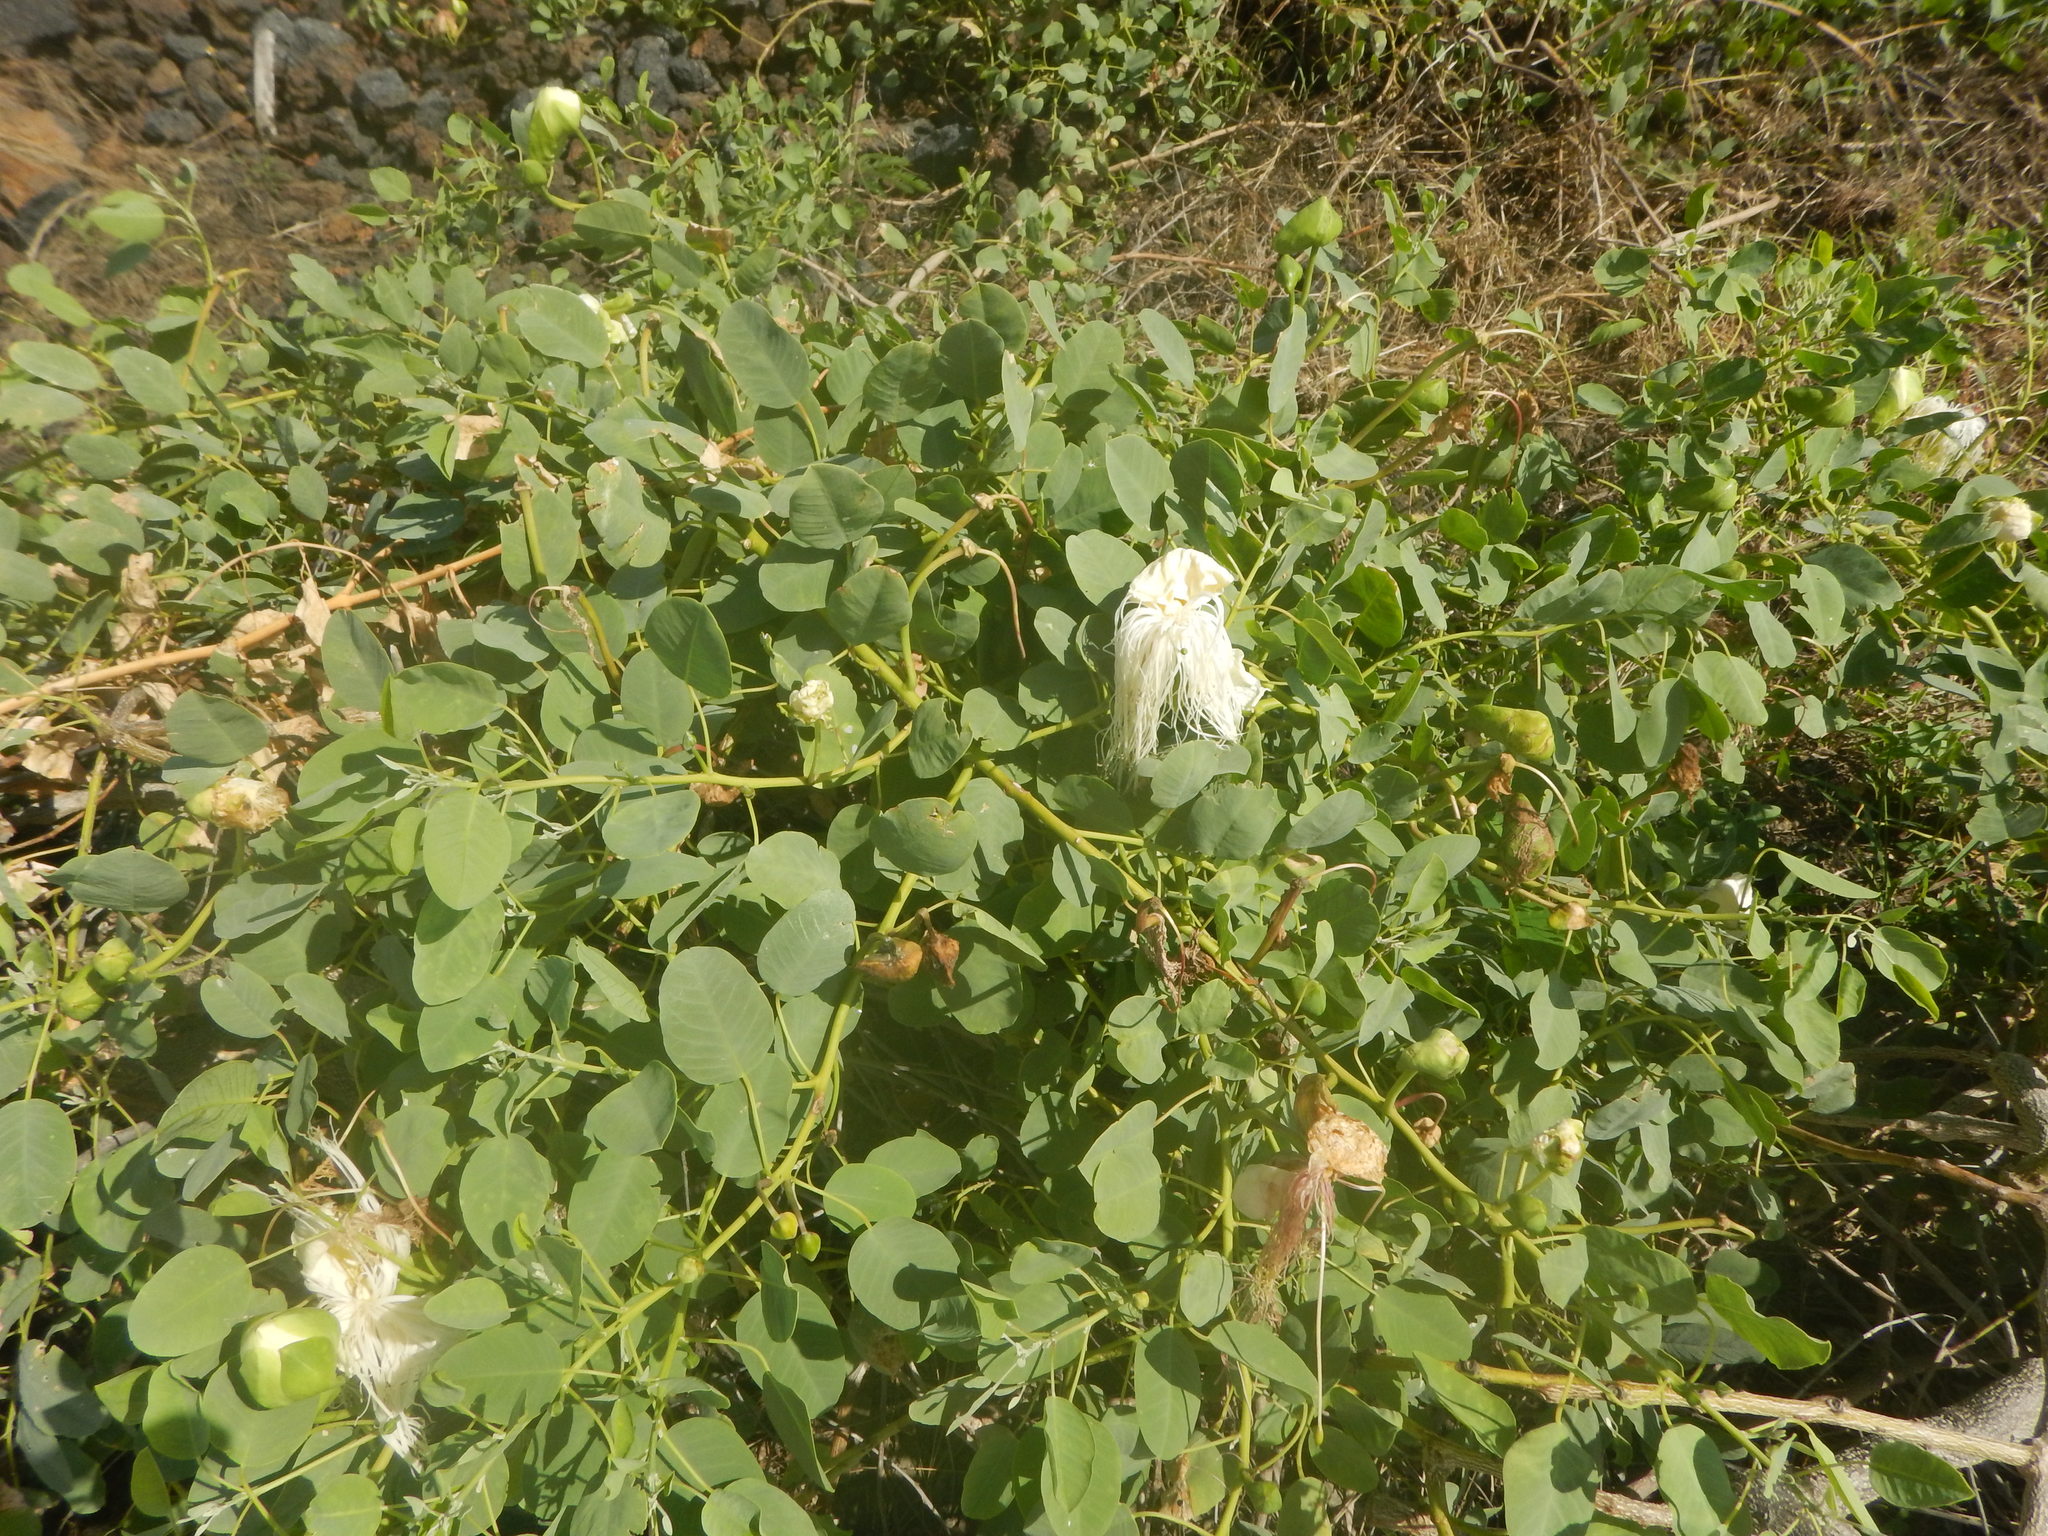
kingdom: Plantae
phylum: Tracheophyta
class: Magnoliopsida
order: Brassicales
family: Capparaceae
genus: Capparis
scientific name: Capparis spinosa
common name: Caper
